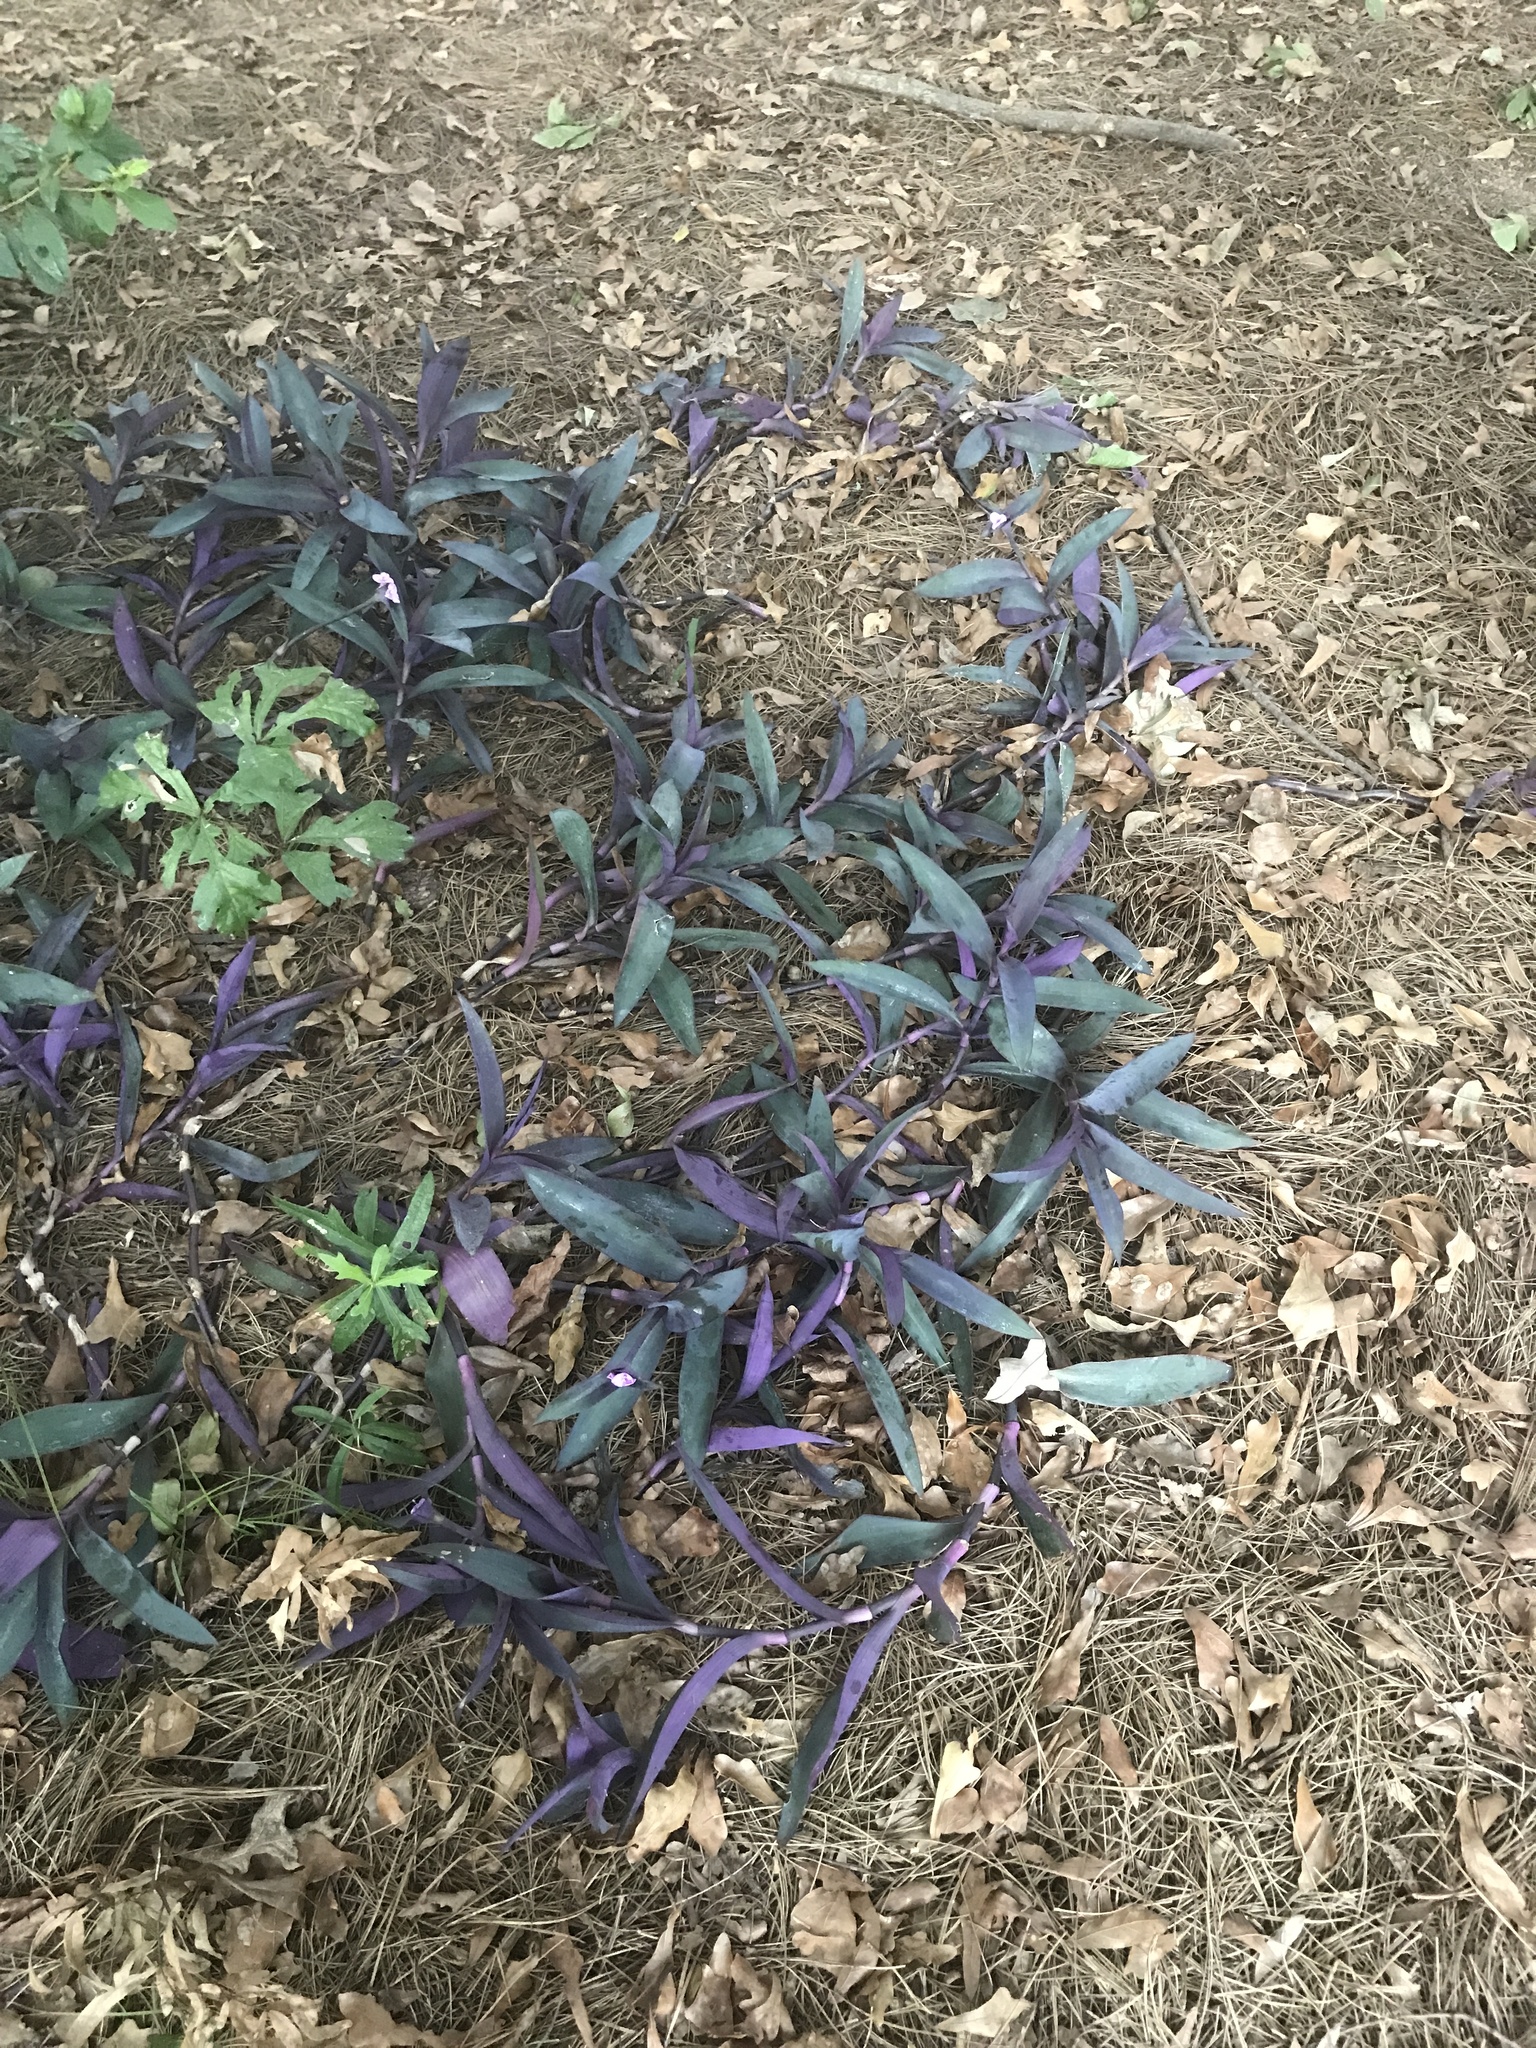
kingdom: Plantae
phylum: Tracheophyta
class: Liliopsida
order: Commelinales
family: Commelinaceae
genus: Tradescantia
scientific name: Tradescantia pallida
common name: Purpleheart
